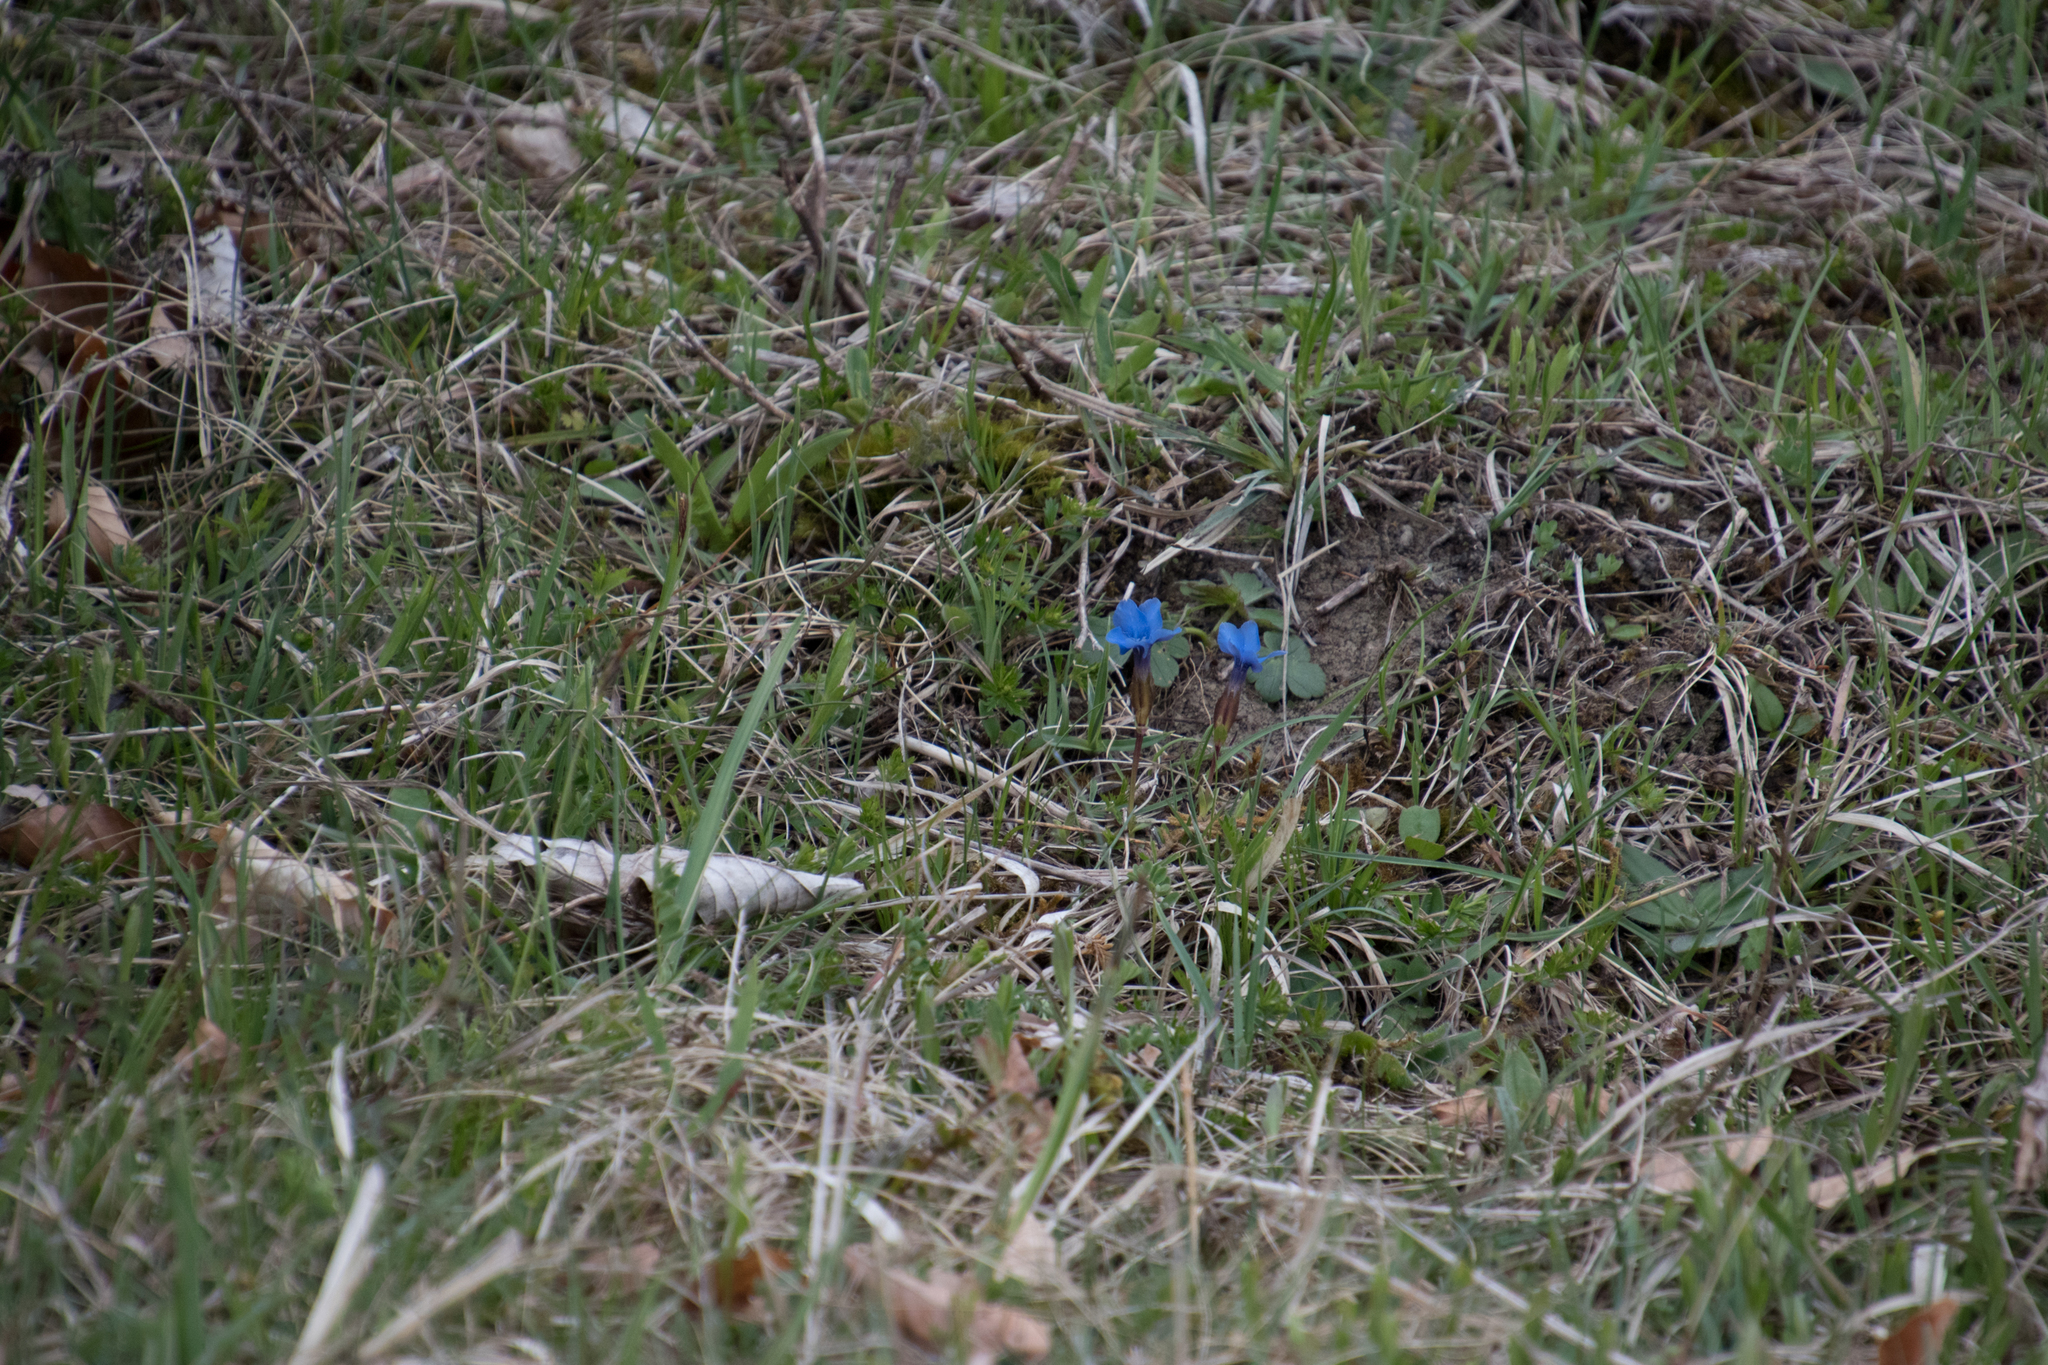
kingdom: Plantae
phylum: Tracheophyta
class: Magnoliopsida
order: Gentianales
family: Gentianaceae
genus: Gentiana
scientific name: Gentiana verna
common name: Spring gentian
